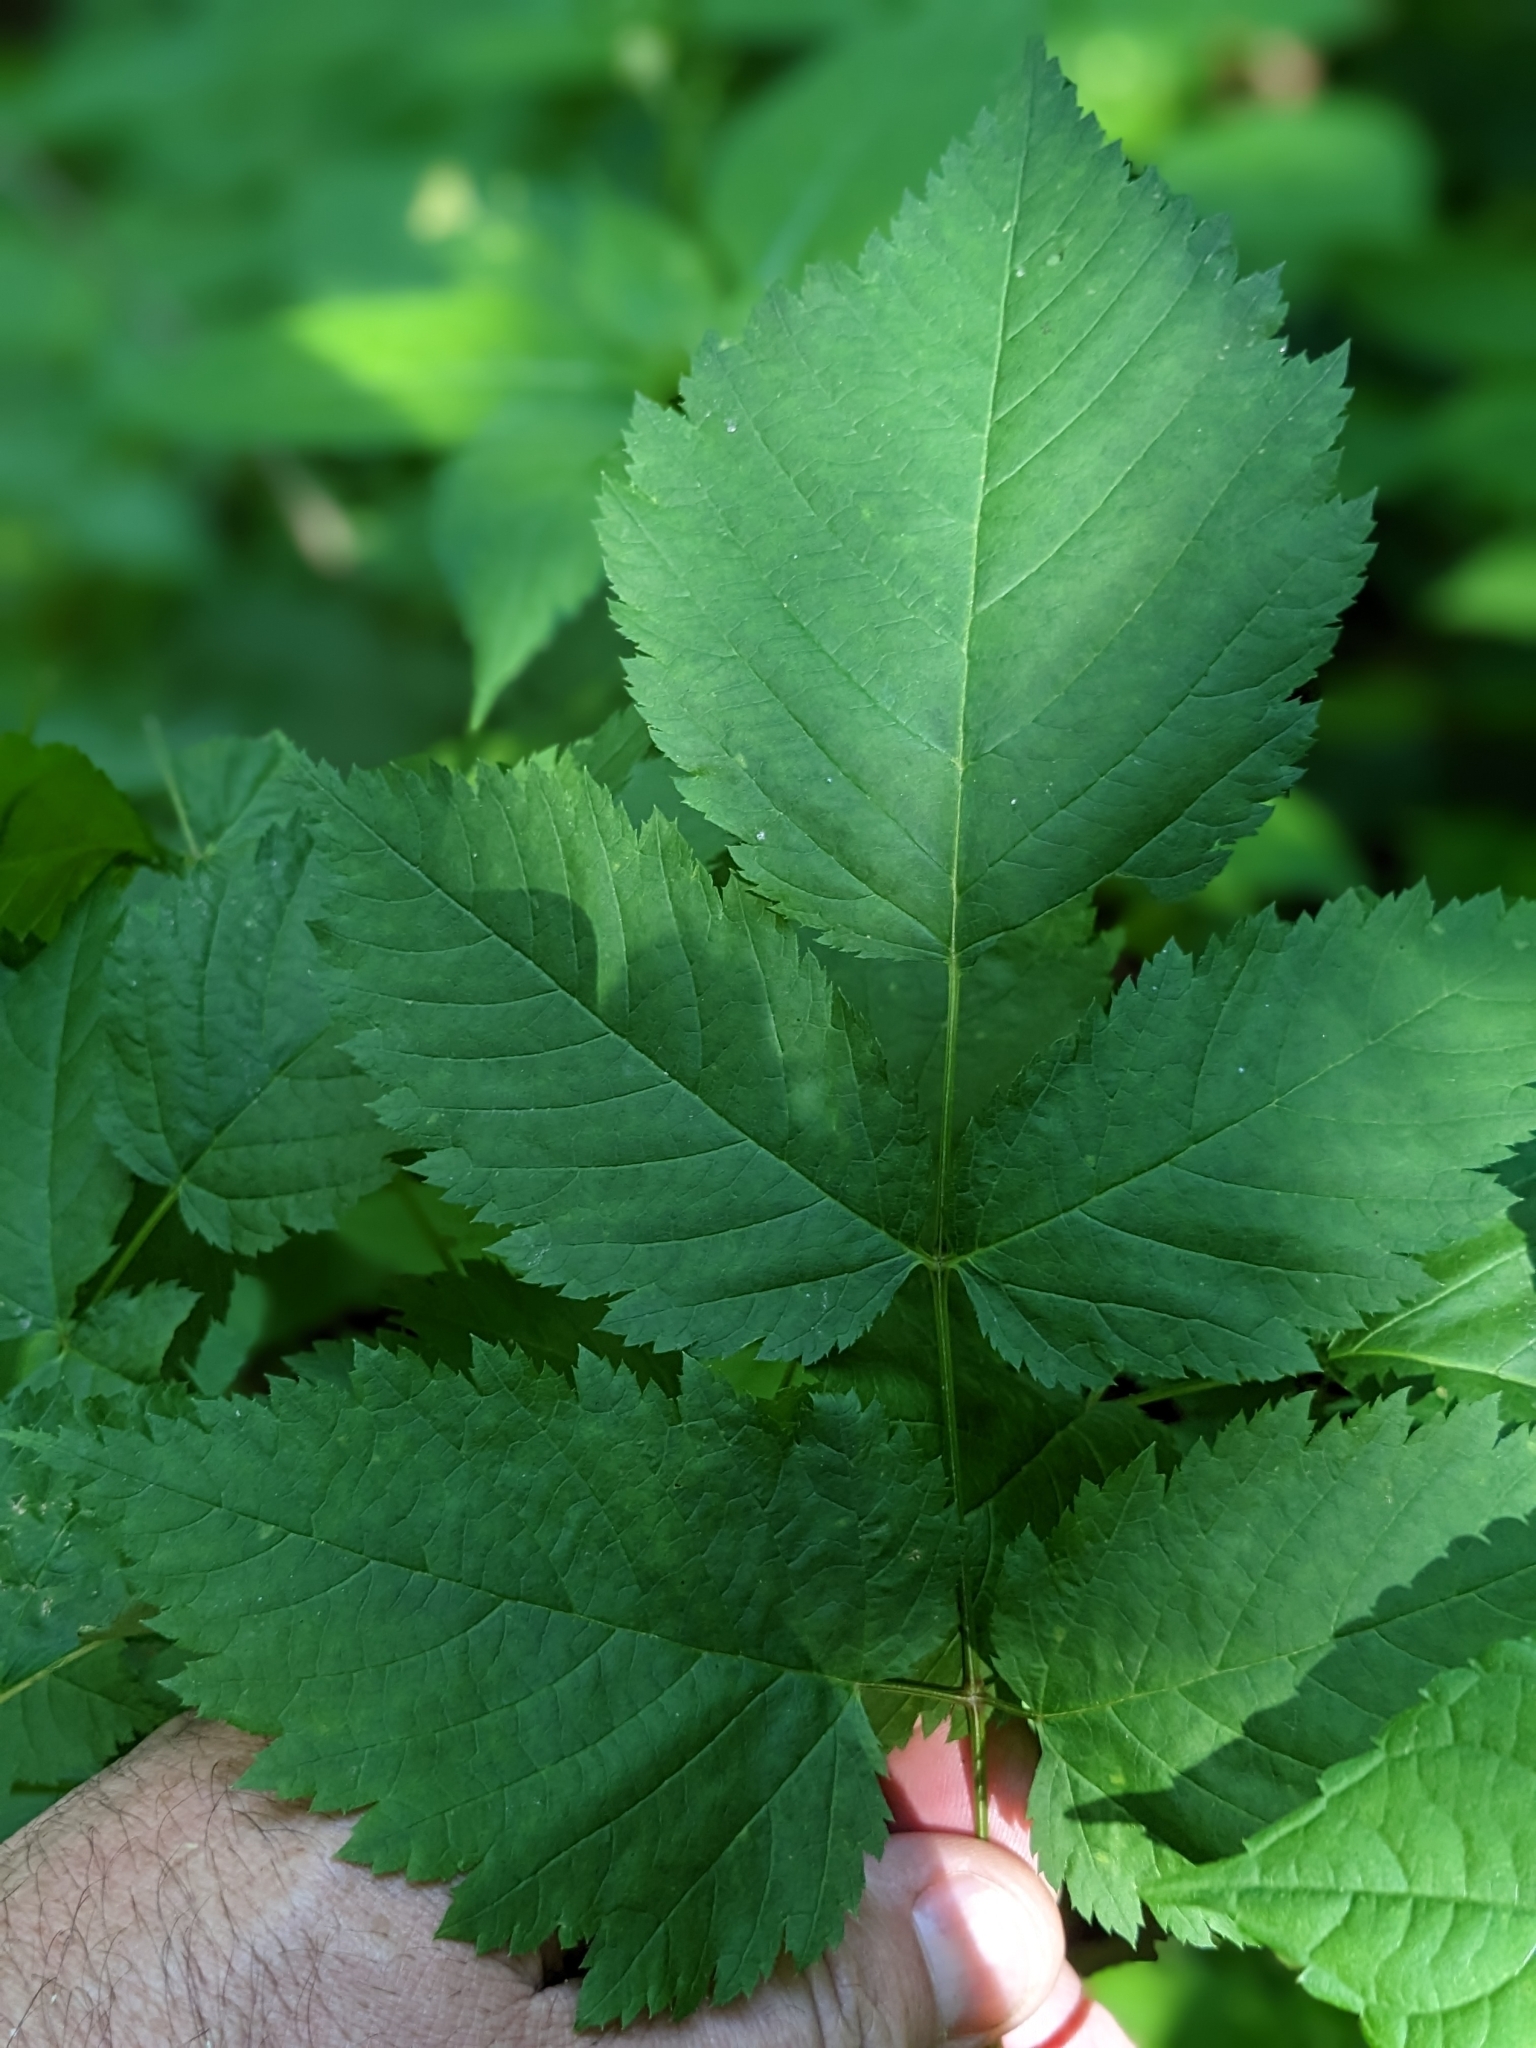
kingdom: Plantae
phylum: Tracheophyta
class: Magnoliopsida
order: Rosales
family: Rosaceae
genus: Aruncus
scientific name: Aruncus dioicus
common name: Buck's-beard
